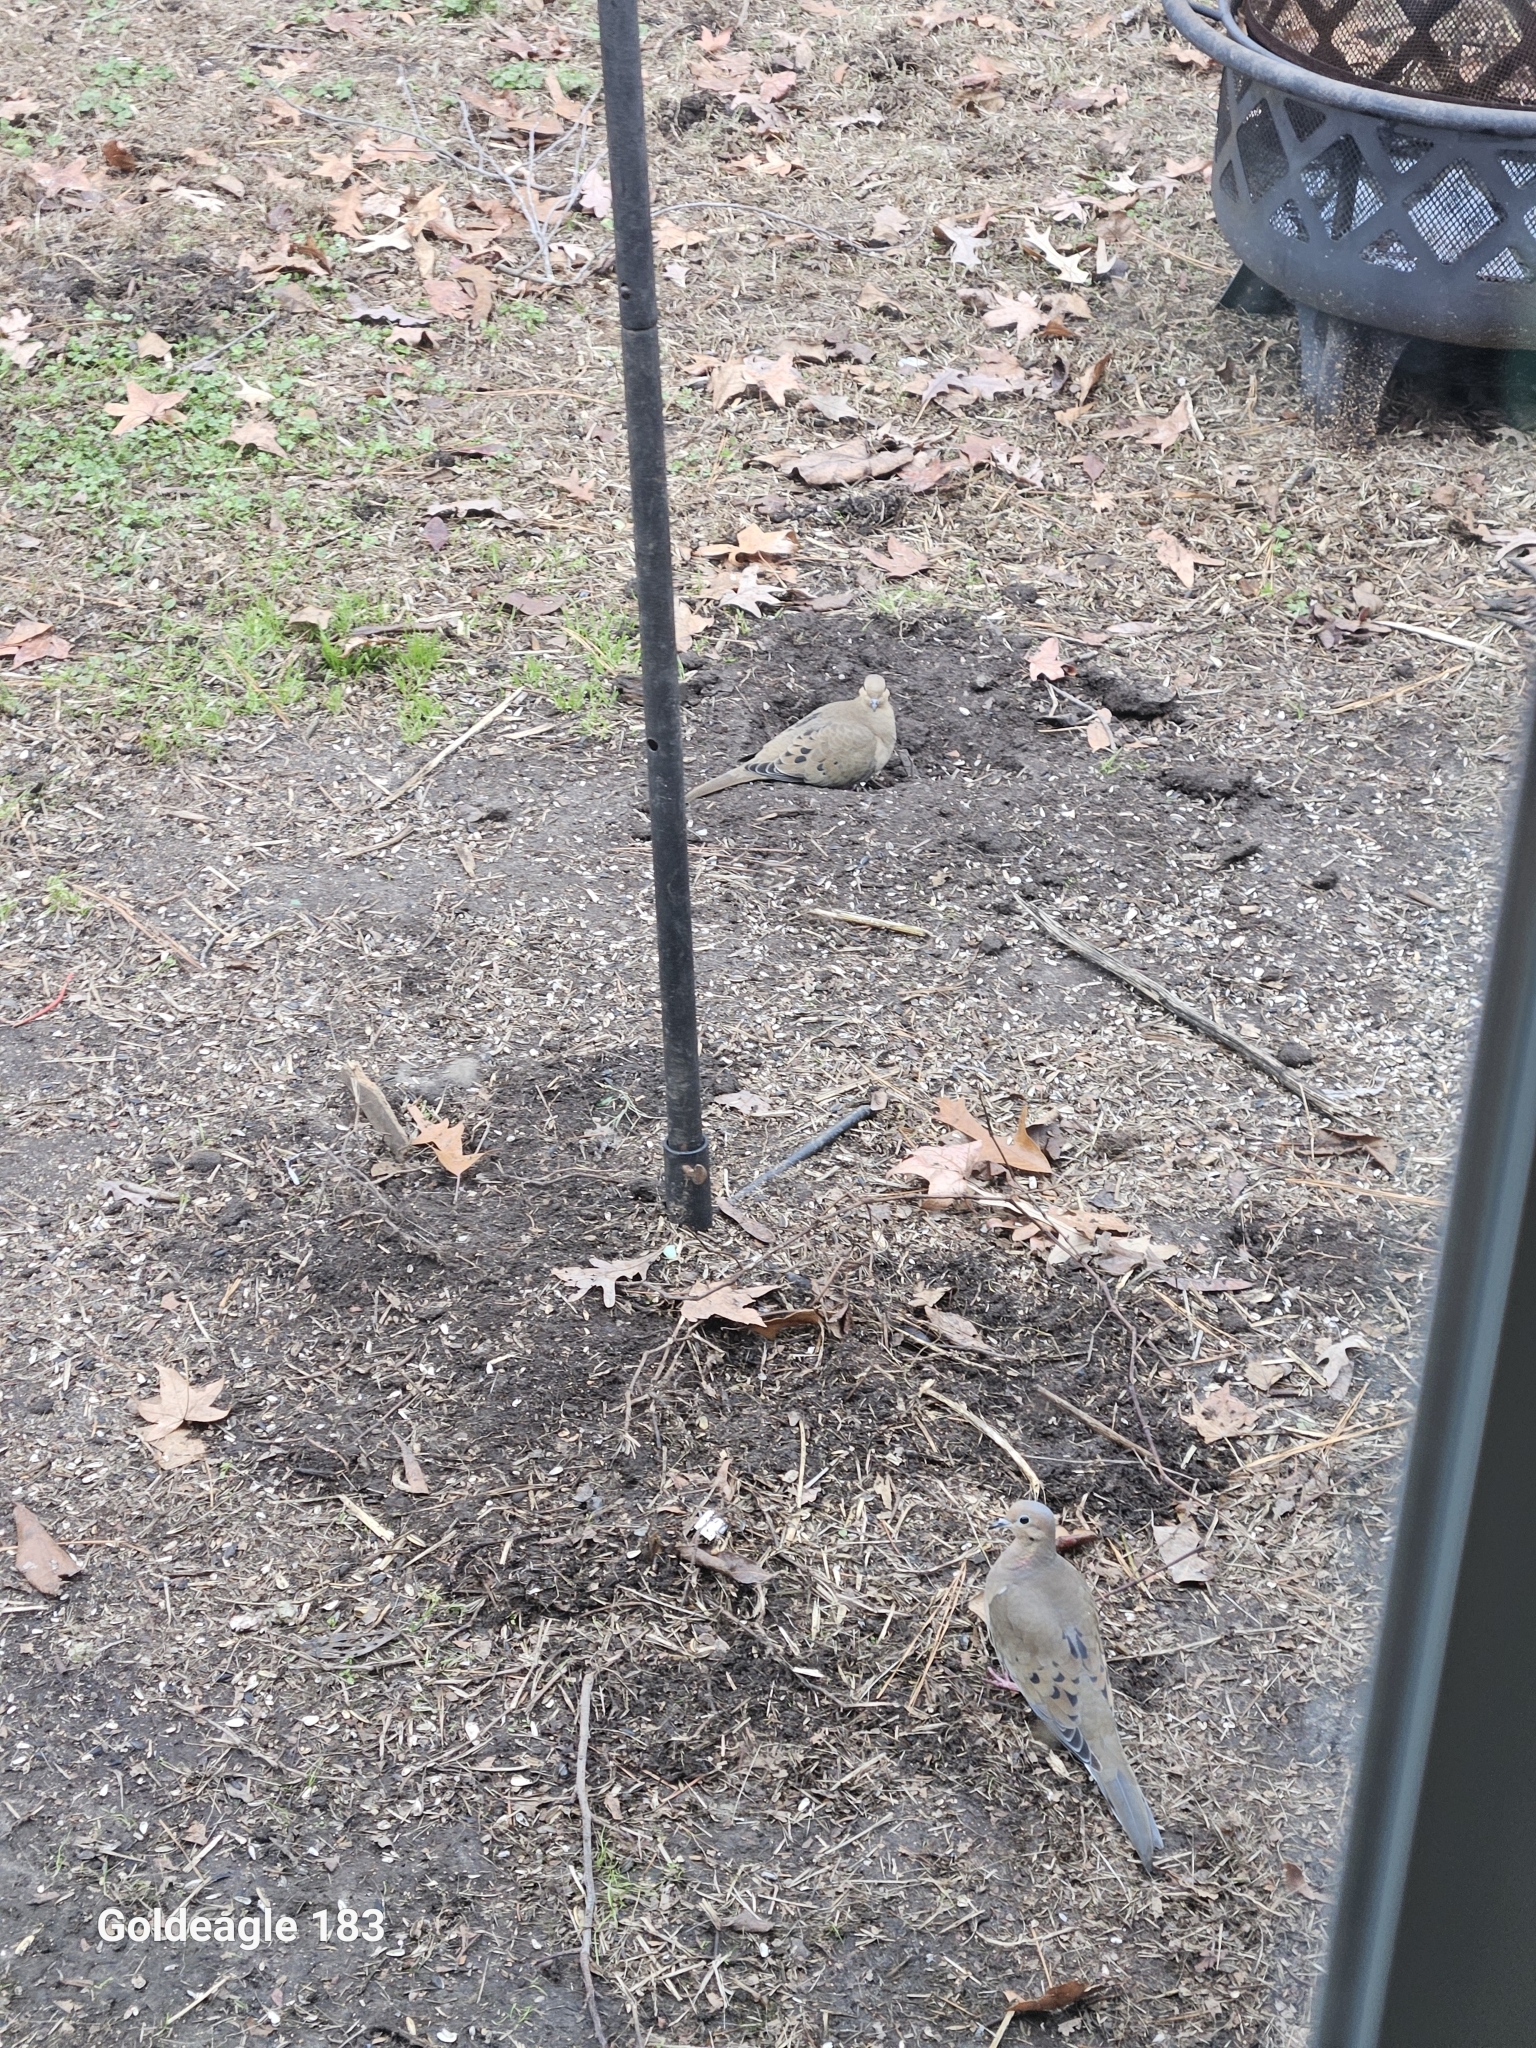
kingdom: Animalia
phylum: Chordata
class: Aves
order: Columbiformes
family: Columbidae
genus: Zenaida
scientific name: Zenaida macroura
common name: Mourning dove
